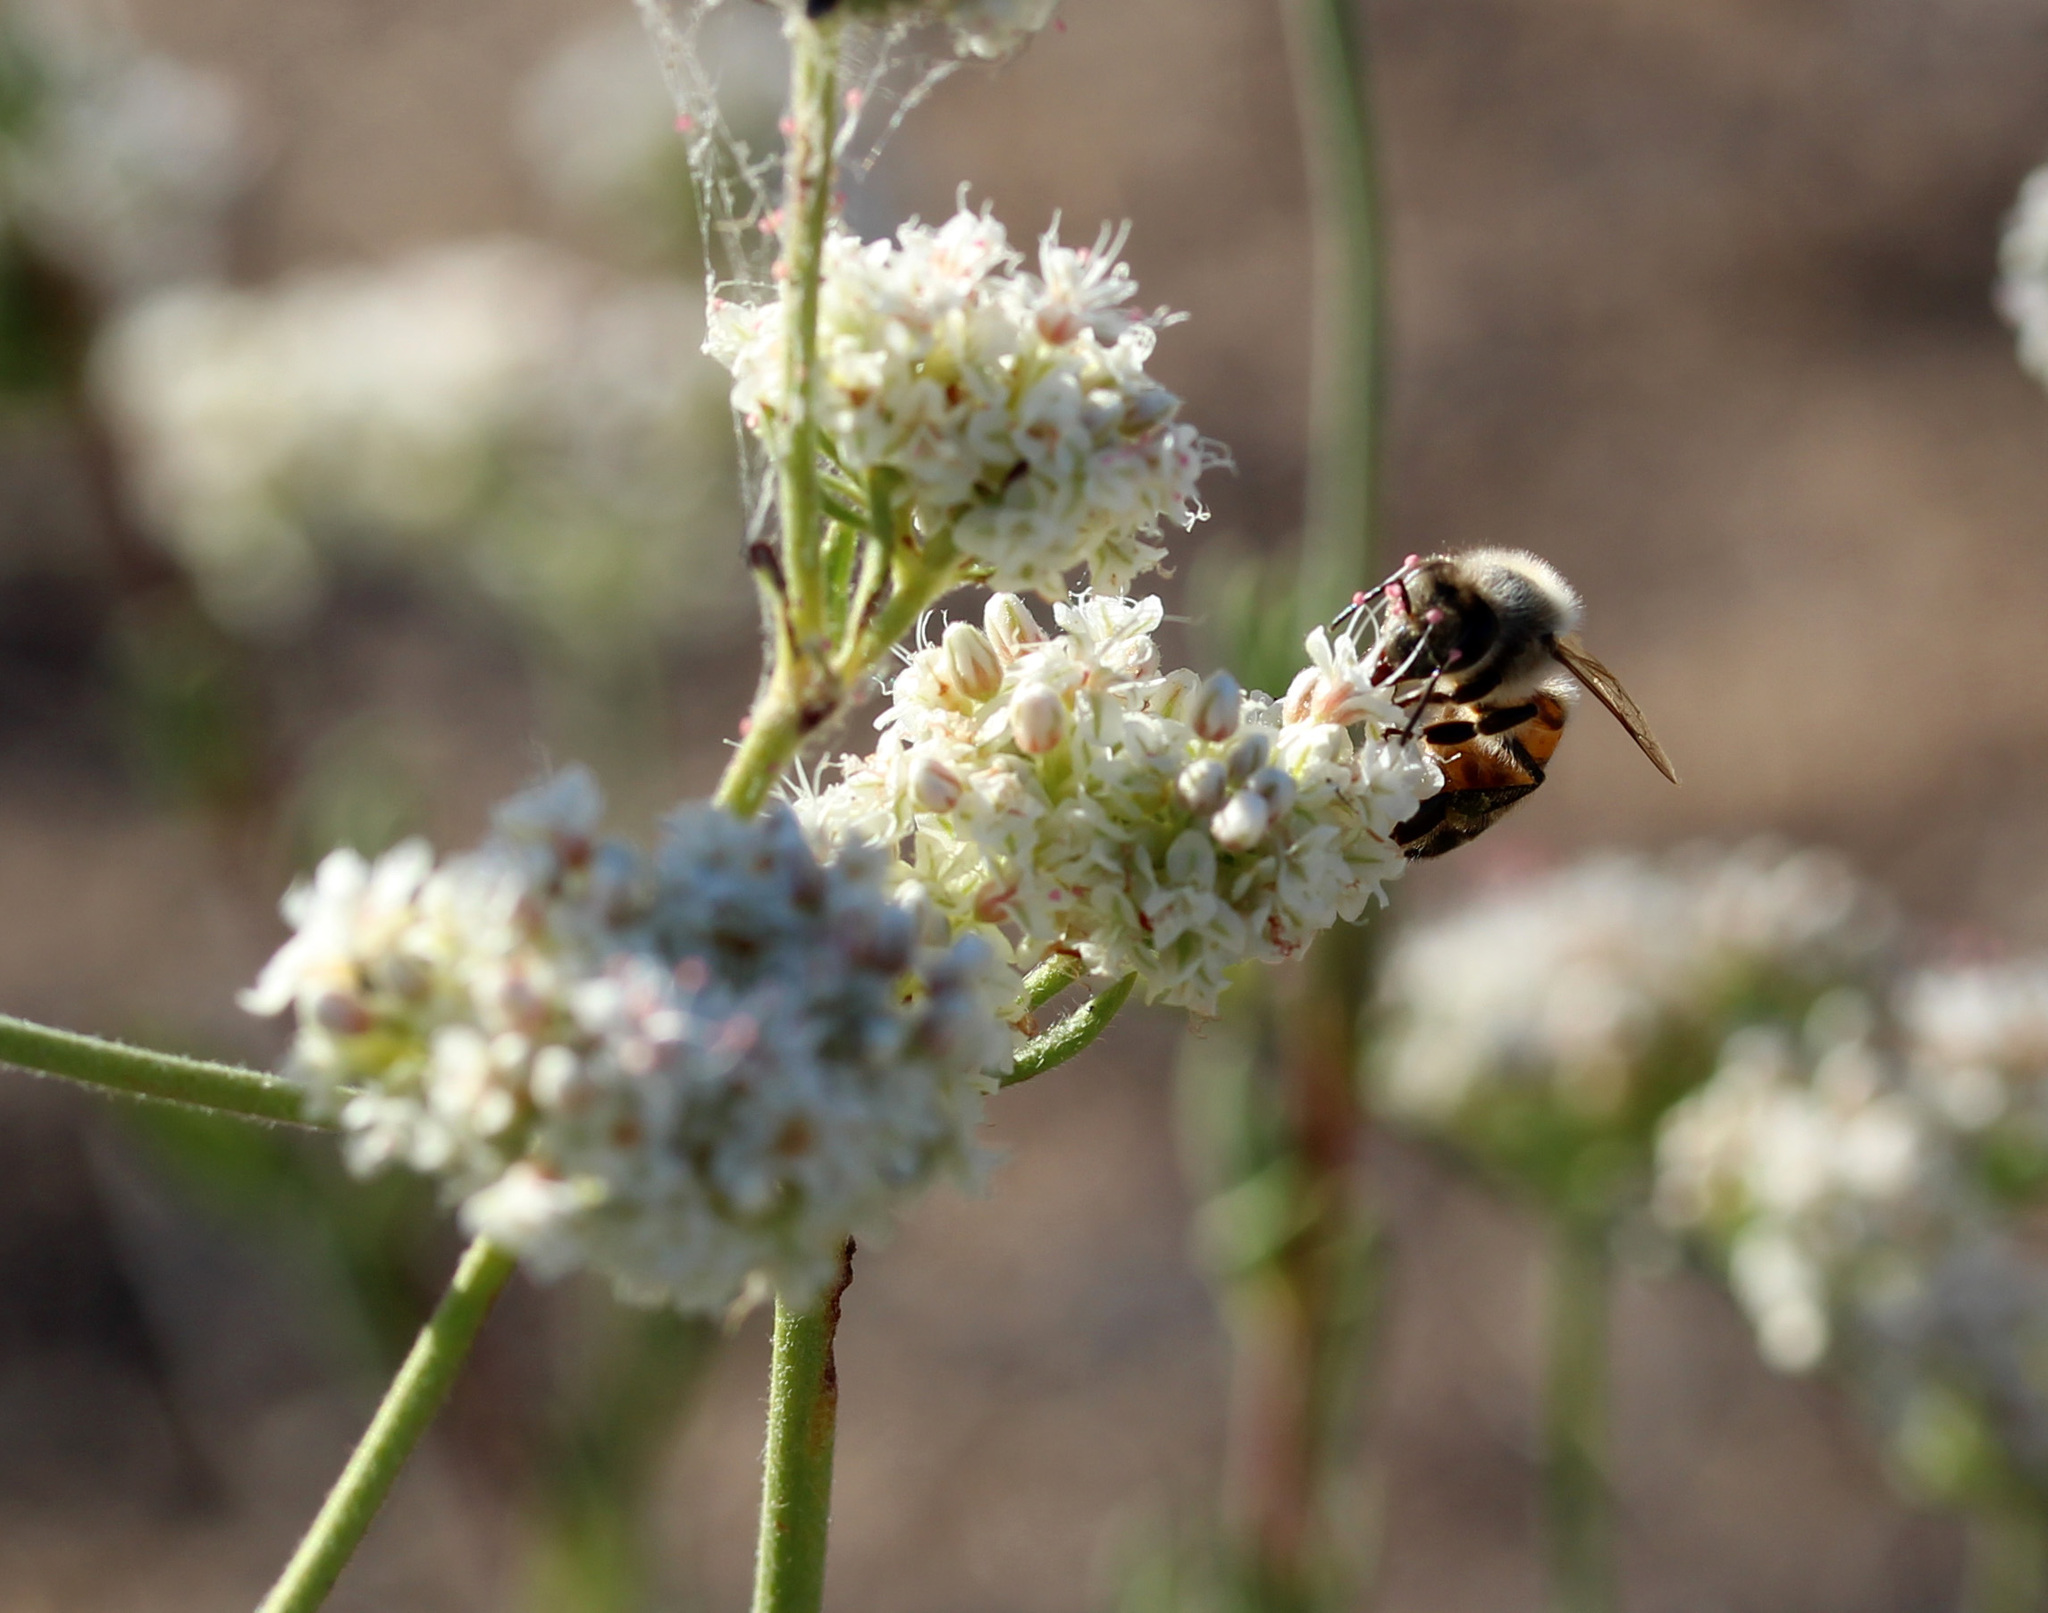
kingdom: Animalia
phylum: Arthropoda
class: Insecta
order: Hymenoptera
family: Apidae
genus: Apis
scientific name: Apis mellifera
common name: Honey bee
